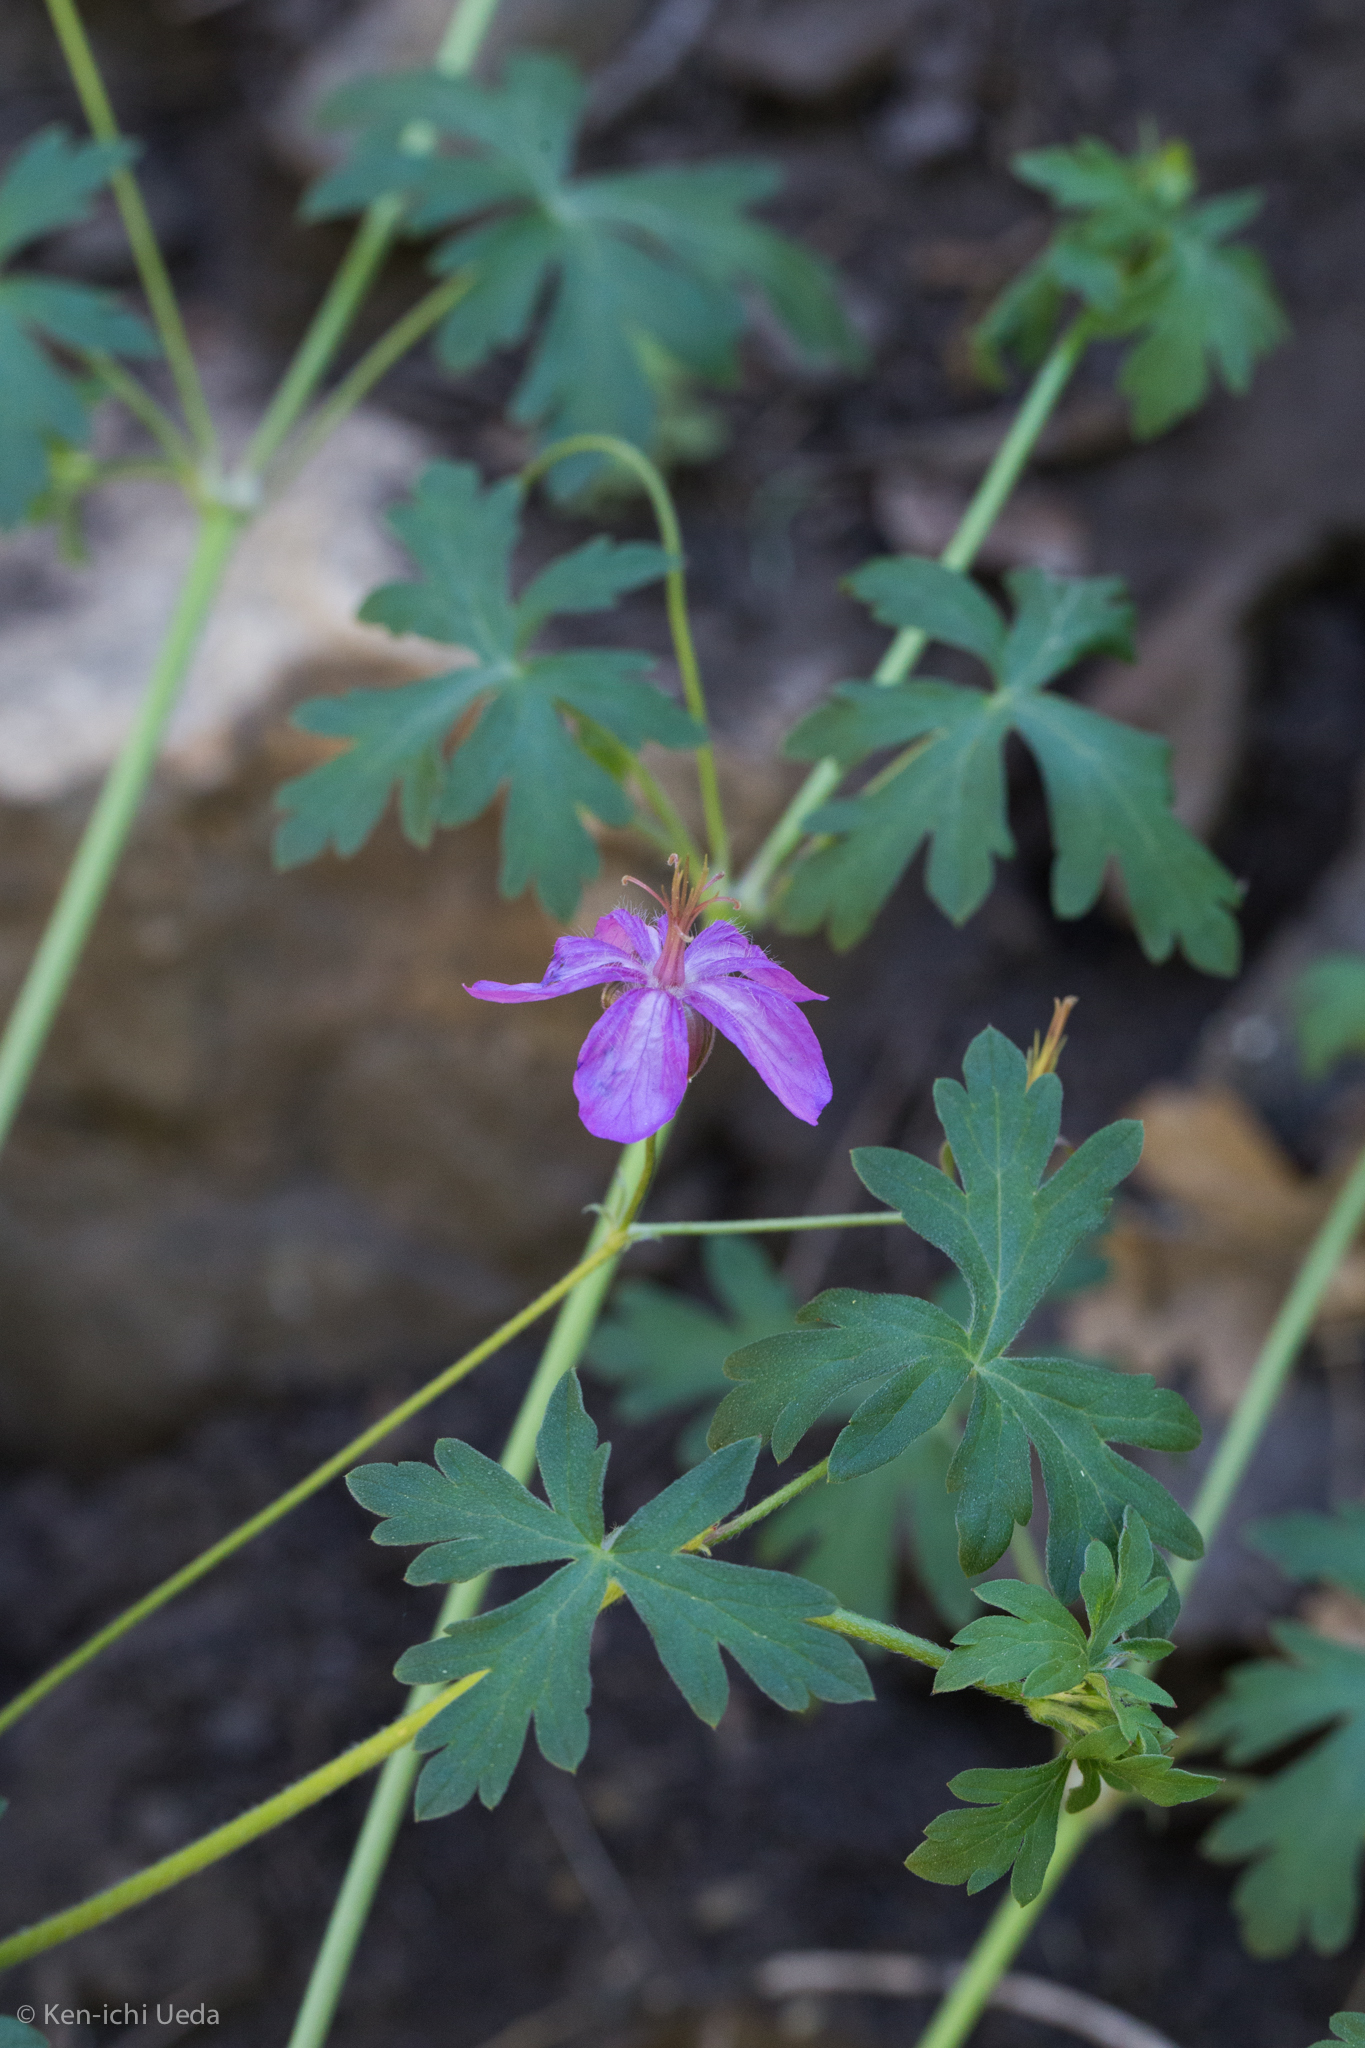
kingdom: Plantae
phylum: Tracheophyta
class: Magnoliopsida
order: Geraniales
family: Geraniaceae
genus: Geranium
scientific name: Geranium caespitosum
